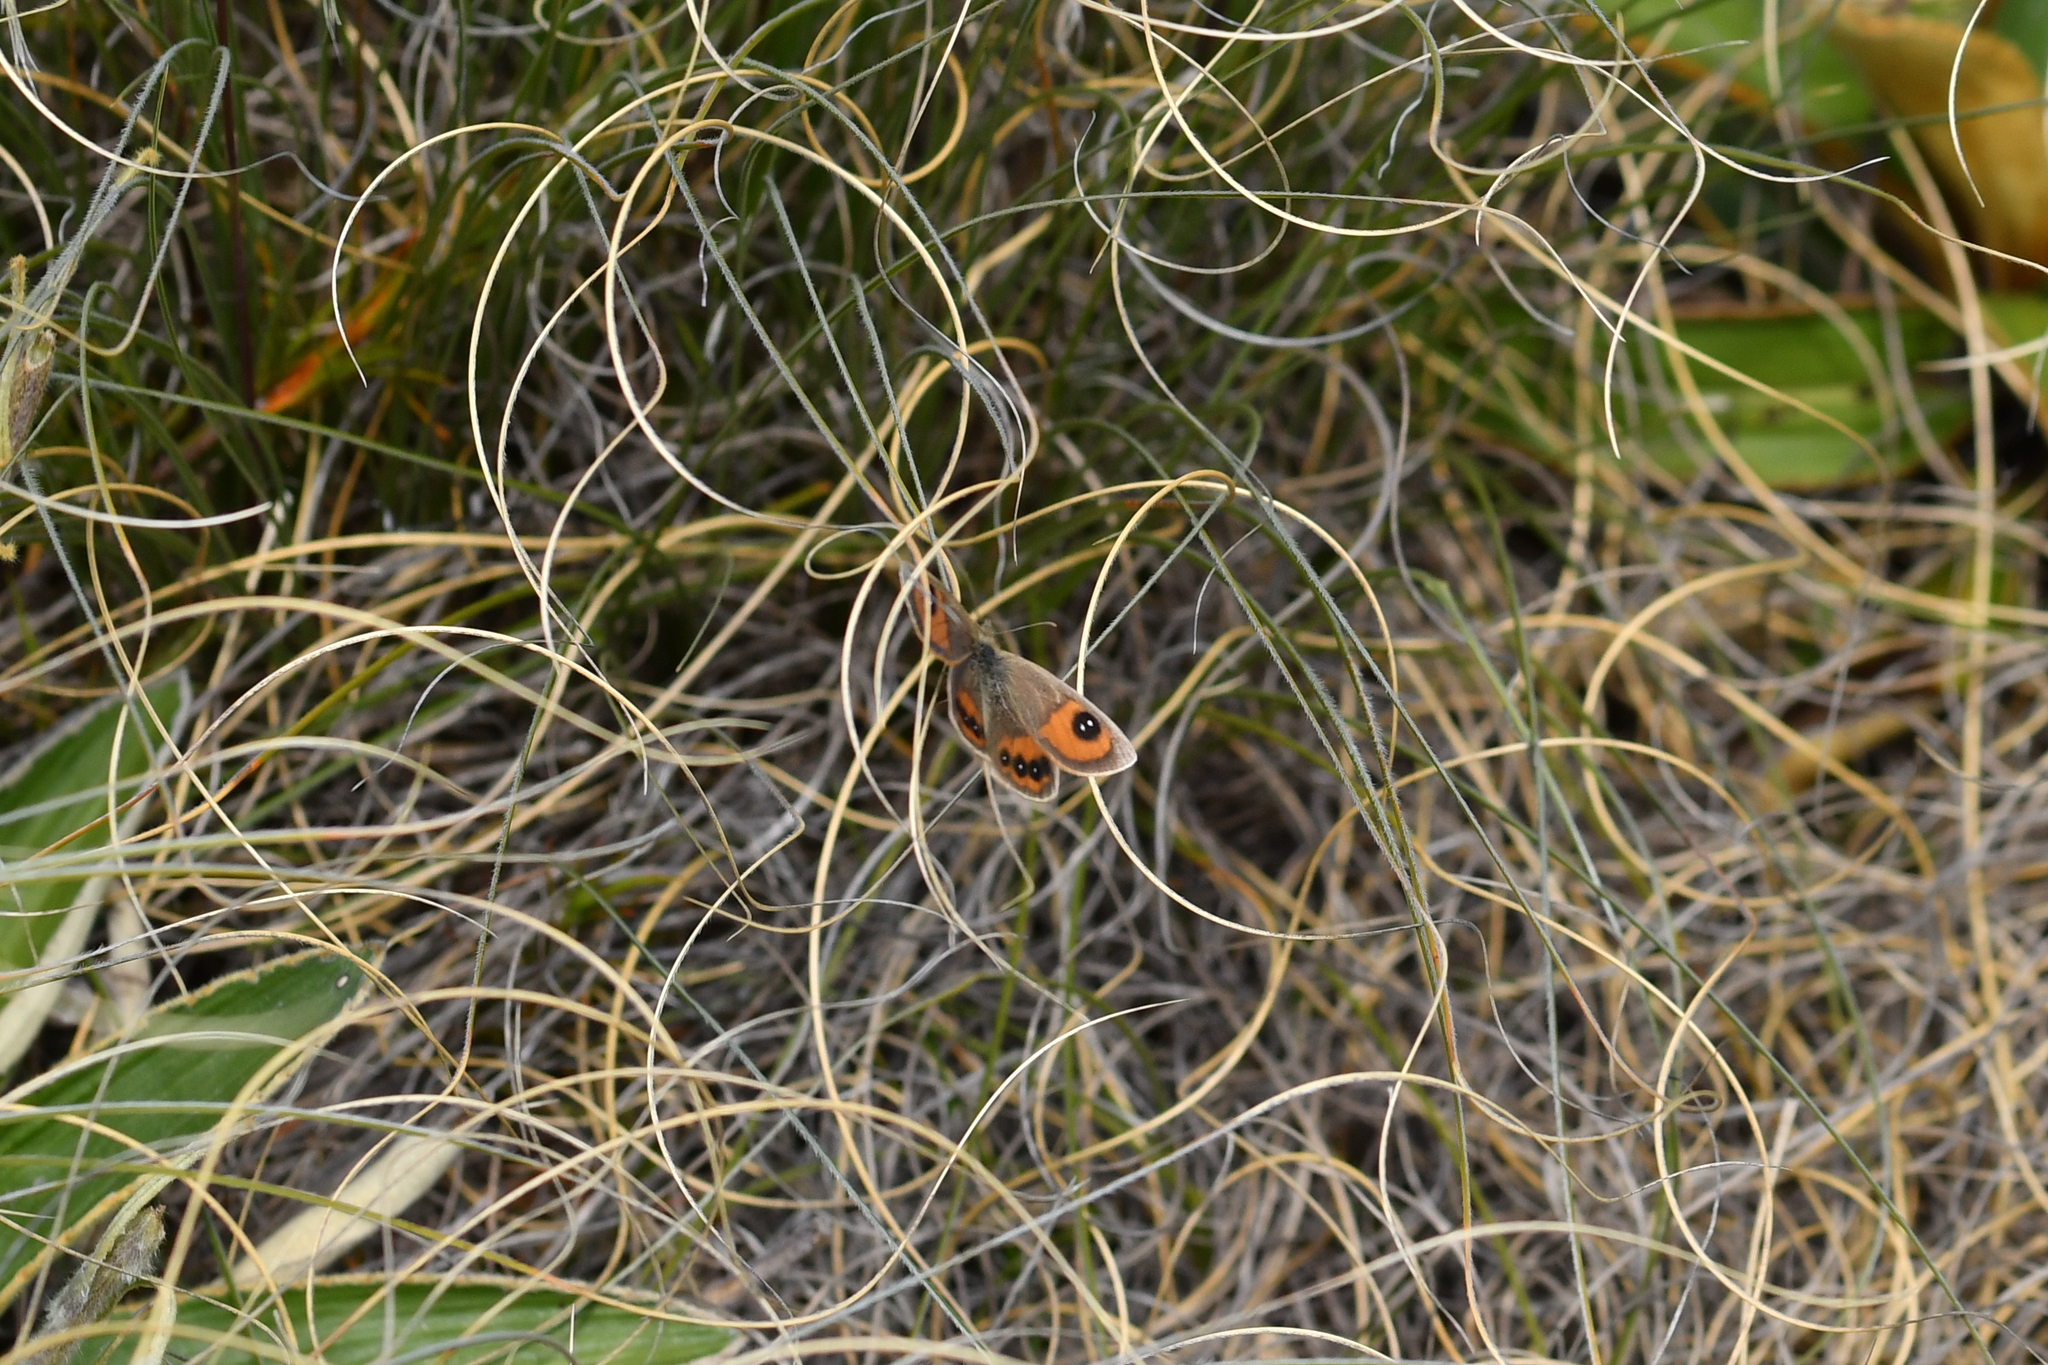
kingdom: Animalia
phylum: Arthropoda
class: Insecta
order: Lepidoptera
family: Nymphalidae
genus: Argyrophenga
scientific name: Argyrophenga antipodum
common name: Common tussock butterfly
